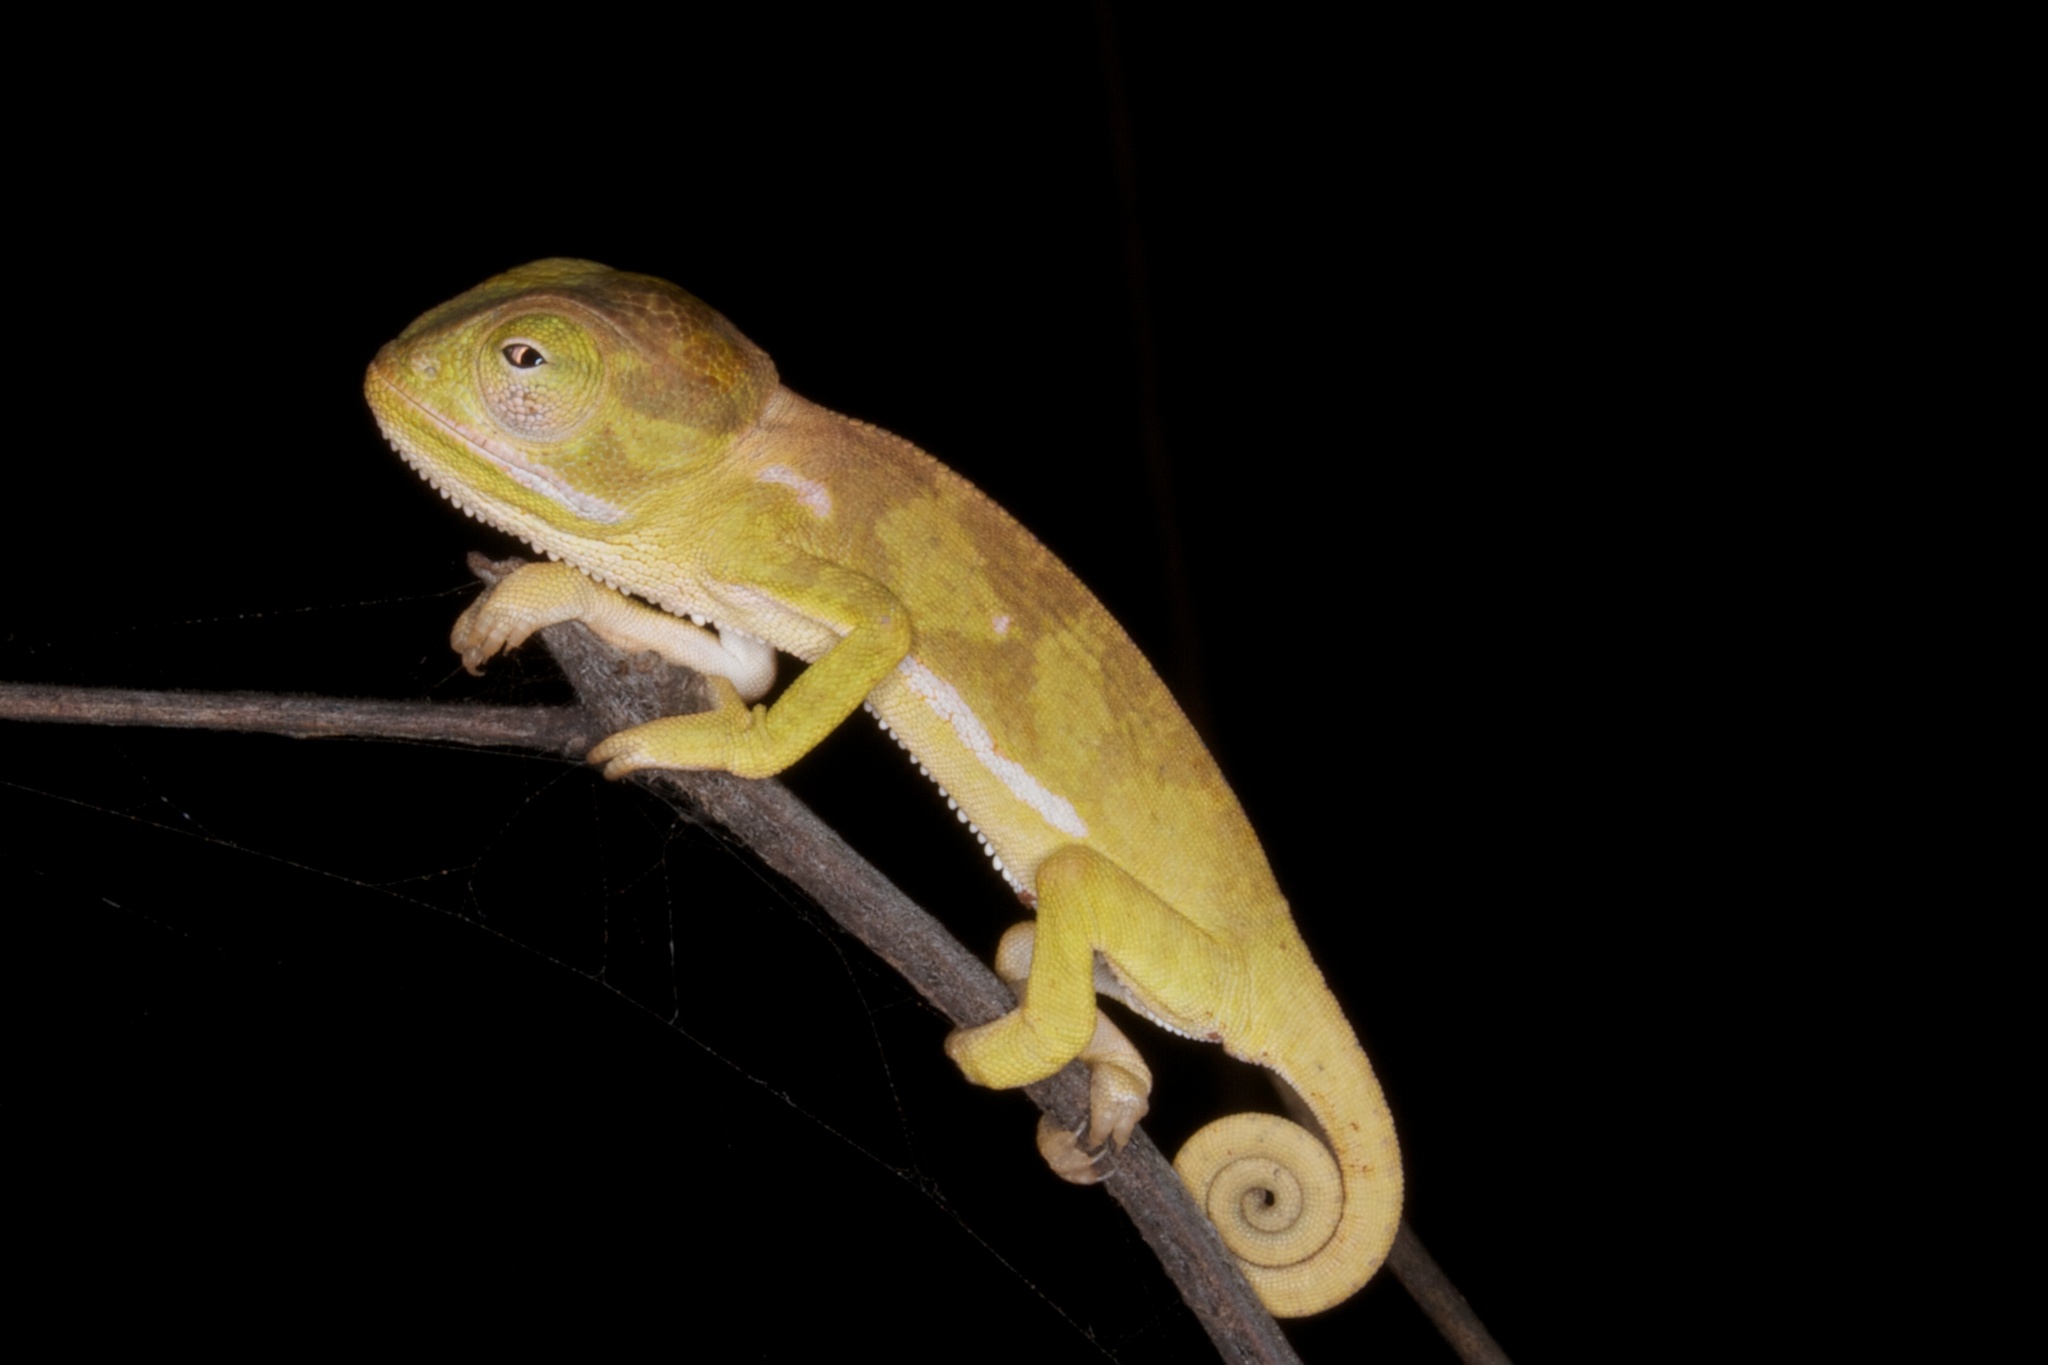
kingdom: Animalia
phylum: Chordata
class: Squamata
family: Chamaeleonidae
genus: Chamaeleo
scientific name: Chamaeleo dilepis
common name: Flapneck chameleon
